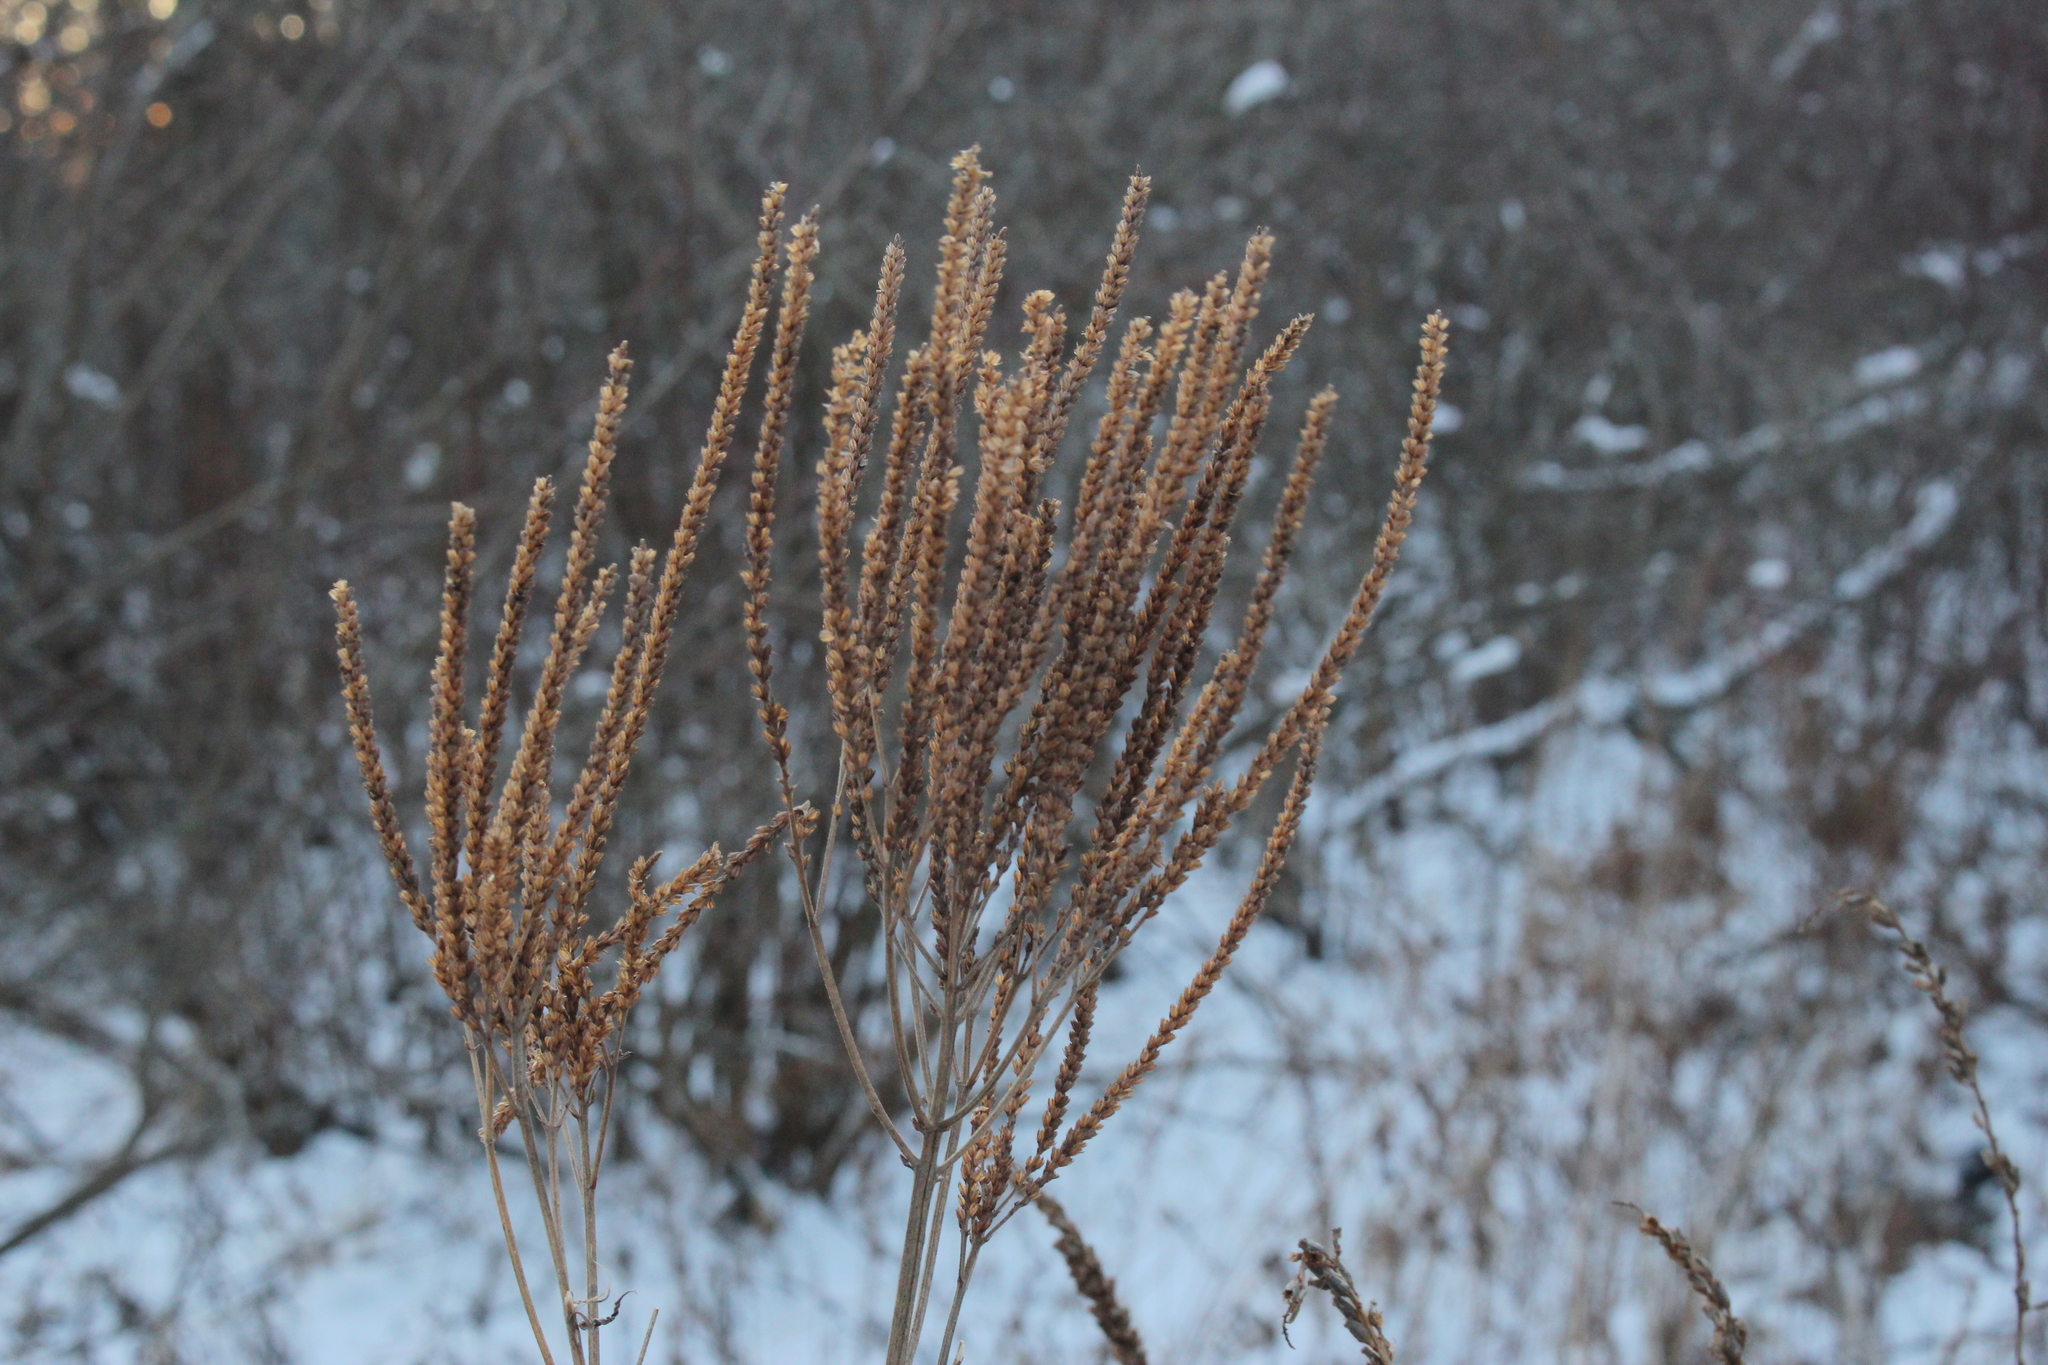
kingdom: Plantae
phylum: Tracheophyta
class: Magnoliopsida
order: Lamiales
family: Verbenaceae
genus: Verbena
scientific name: Verbena hastata
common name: American blue vervain
